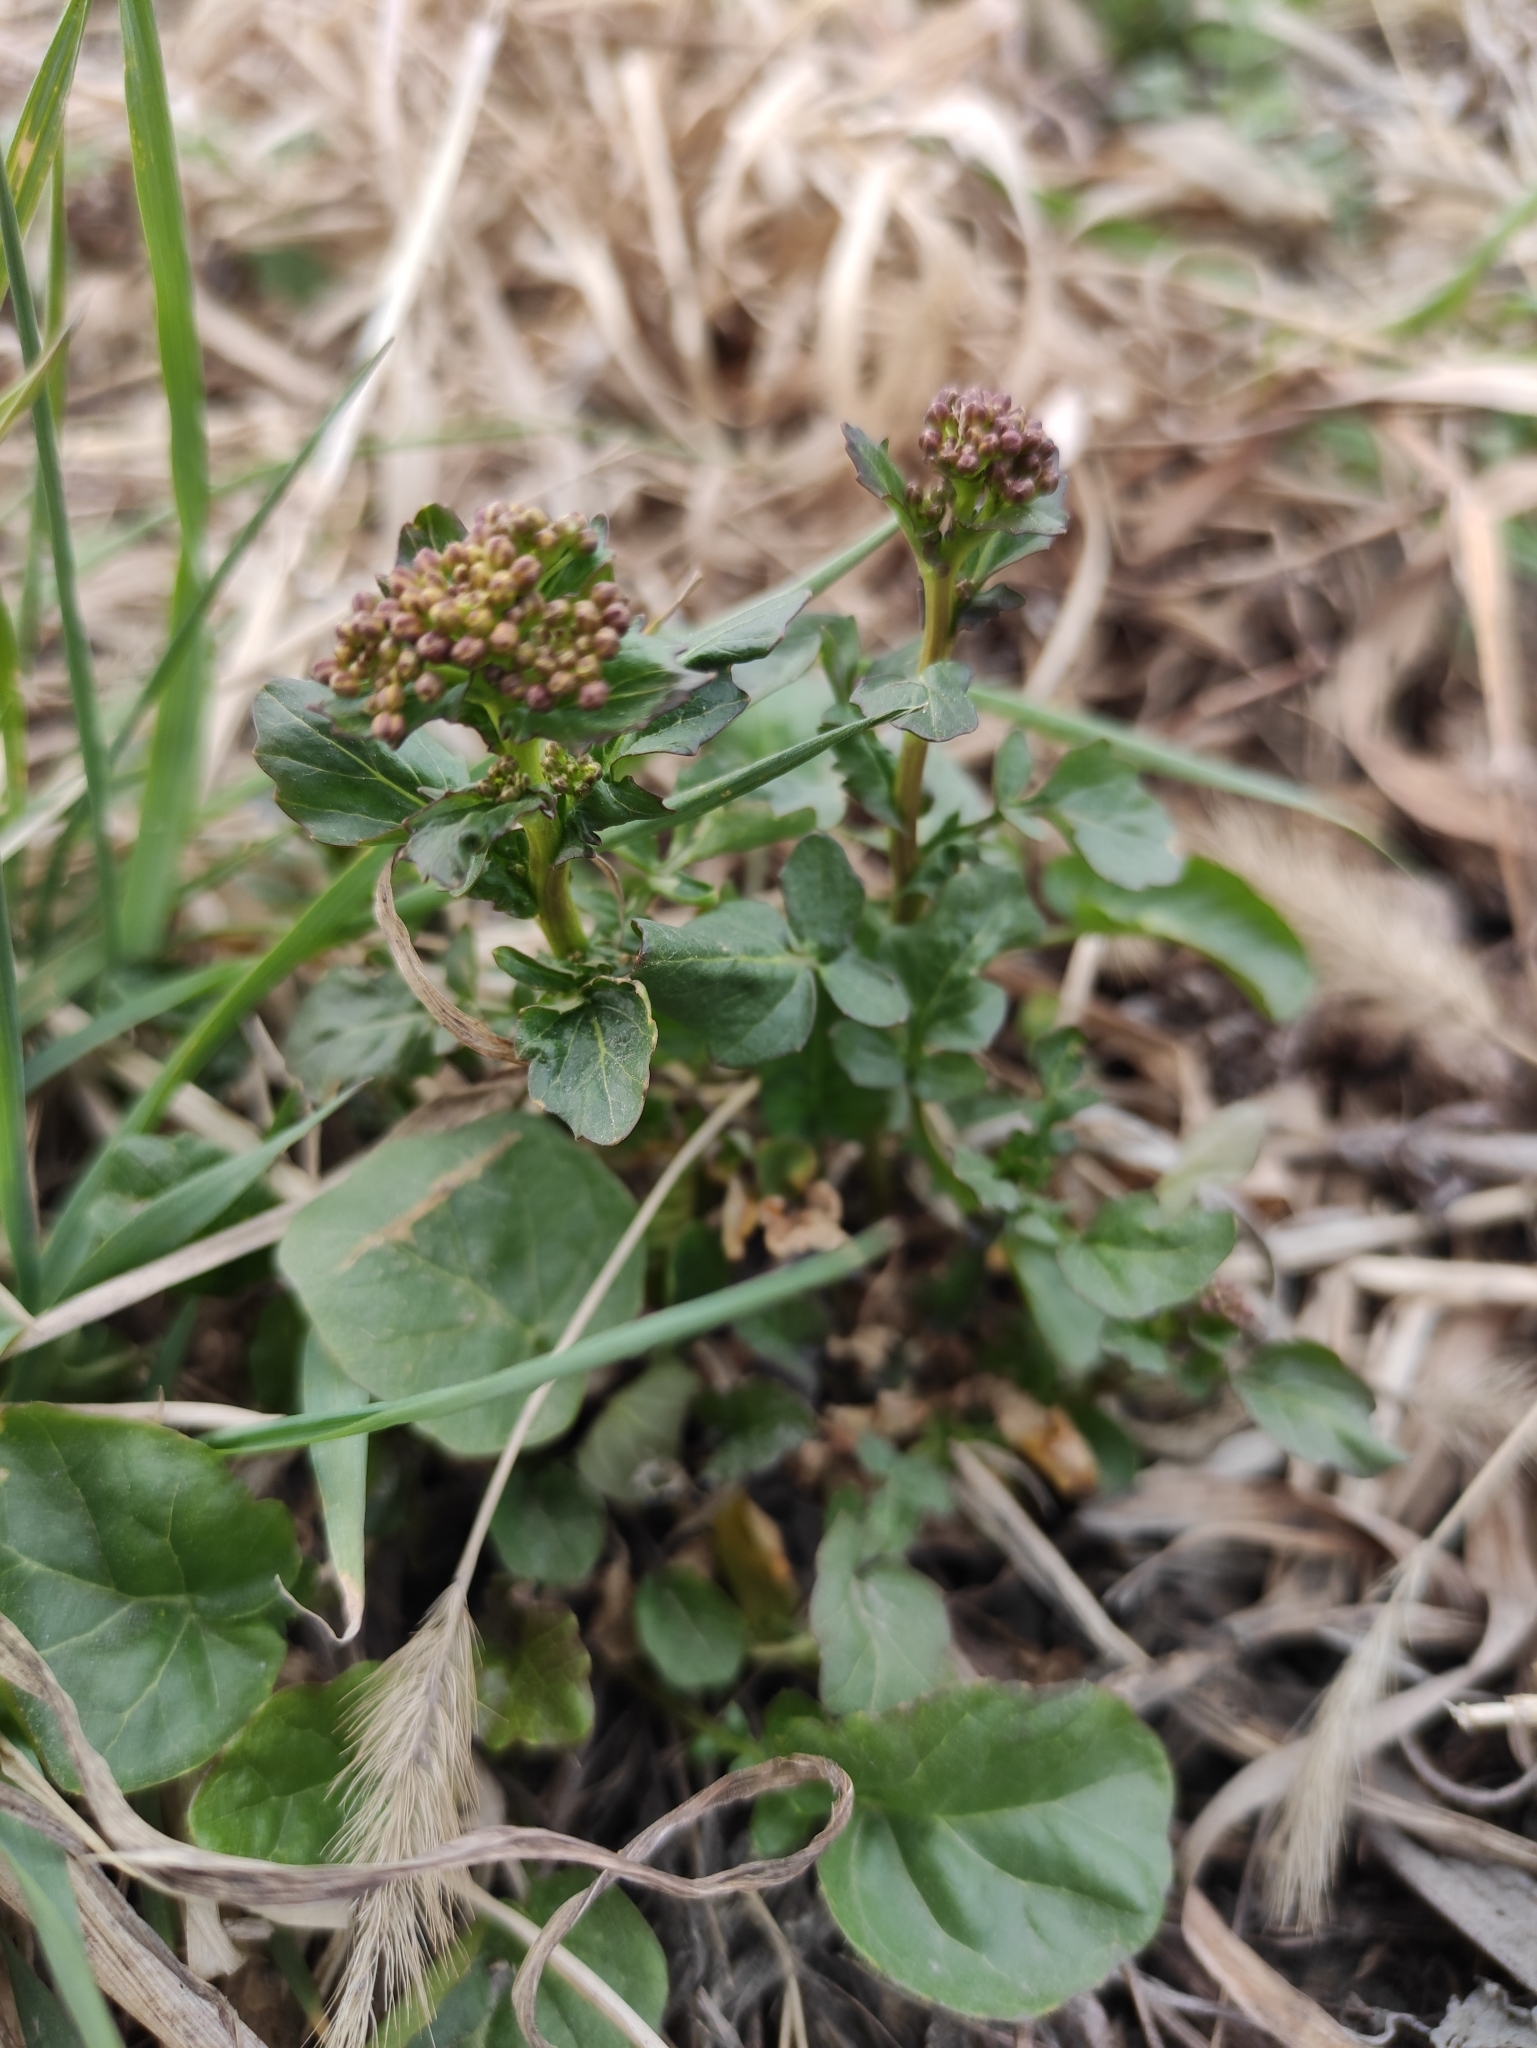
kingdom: Plantae
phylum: Tracheophyta
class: Magnoliopsida
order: Brassicales
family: Brassicaceae
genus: Barbarea
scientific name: Barbarea vulgaris
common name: Cressy-greens
